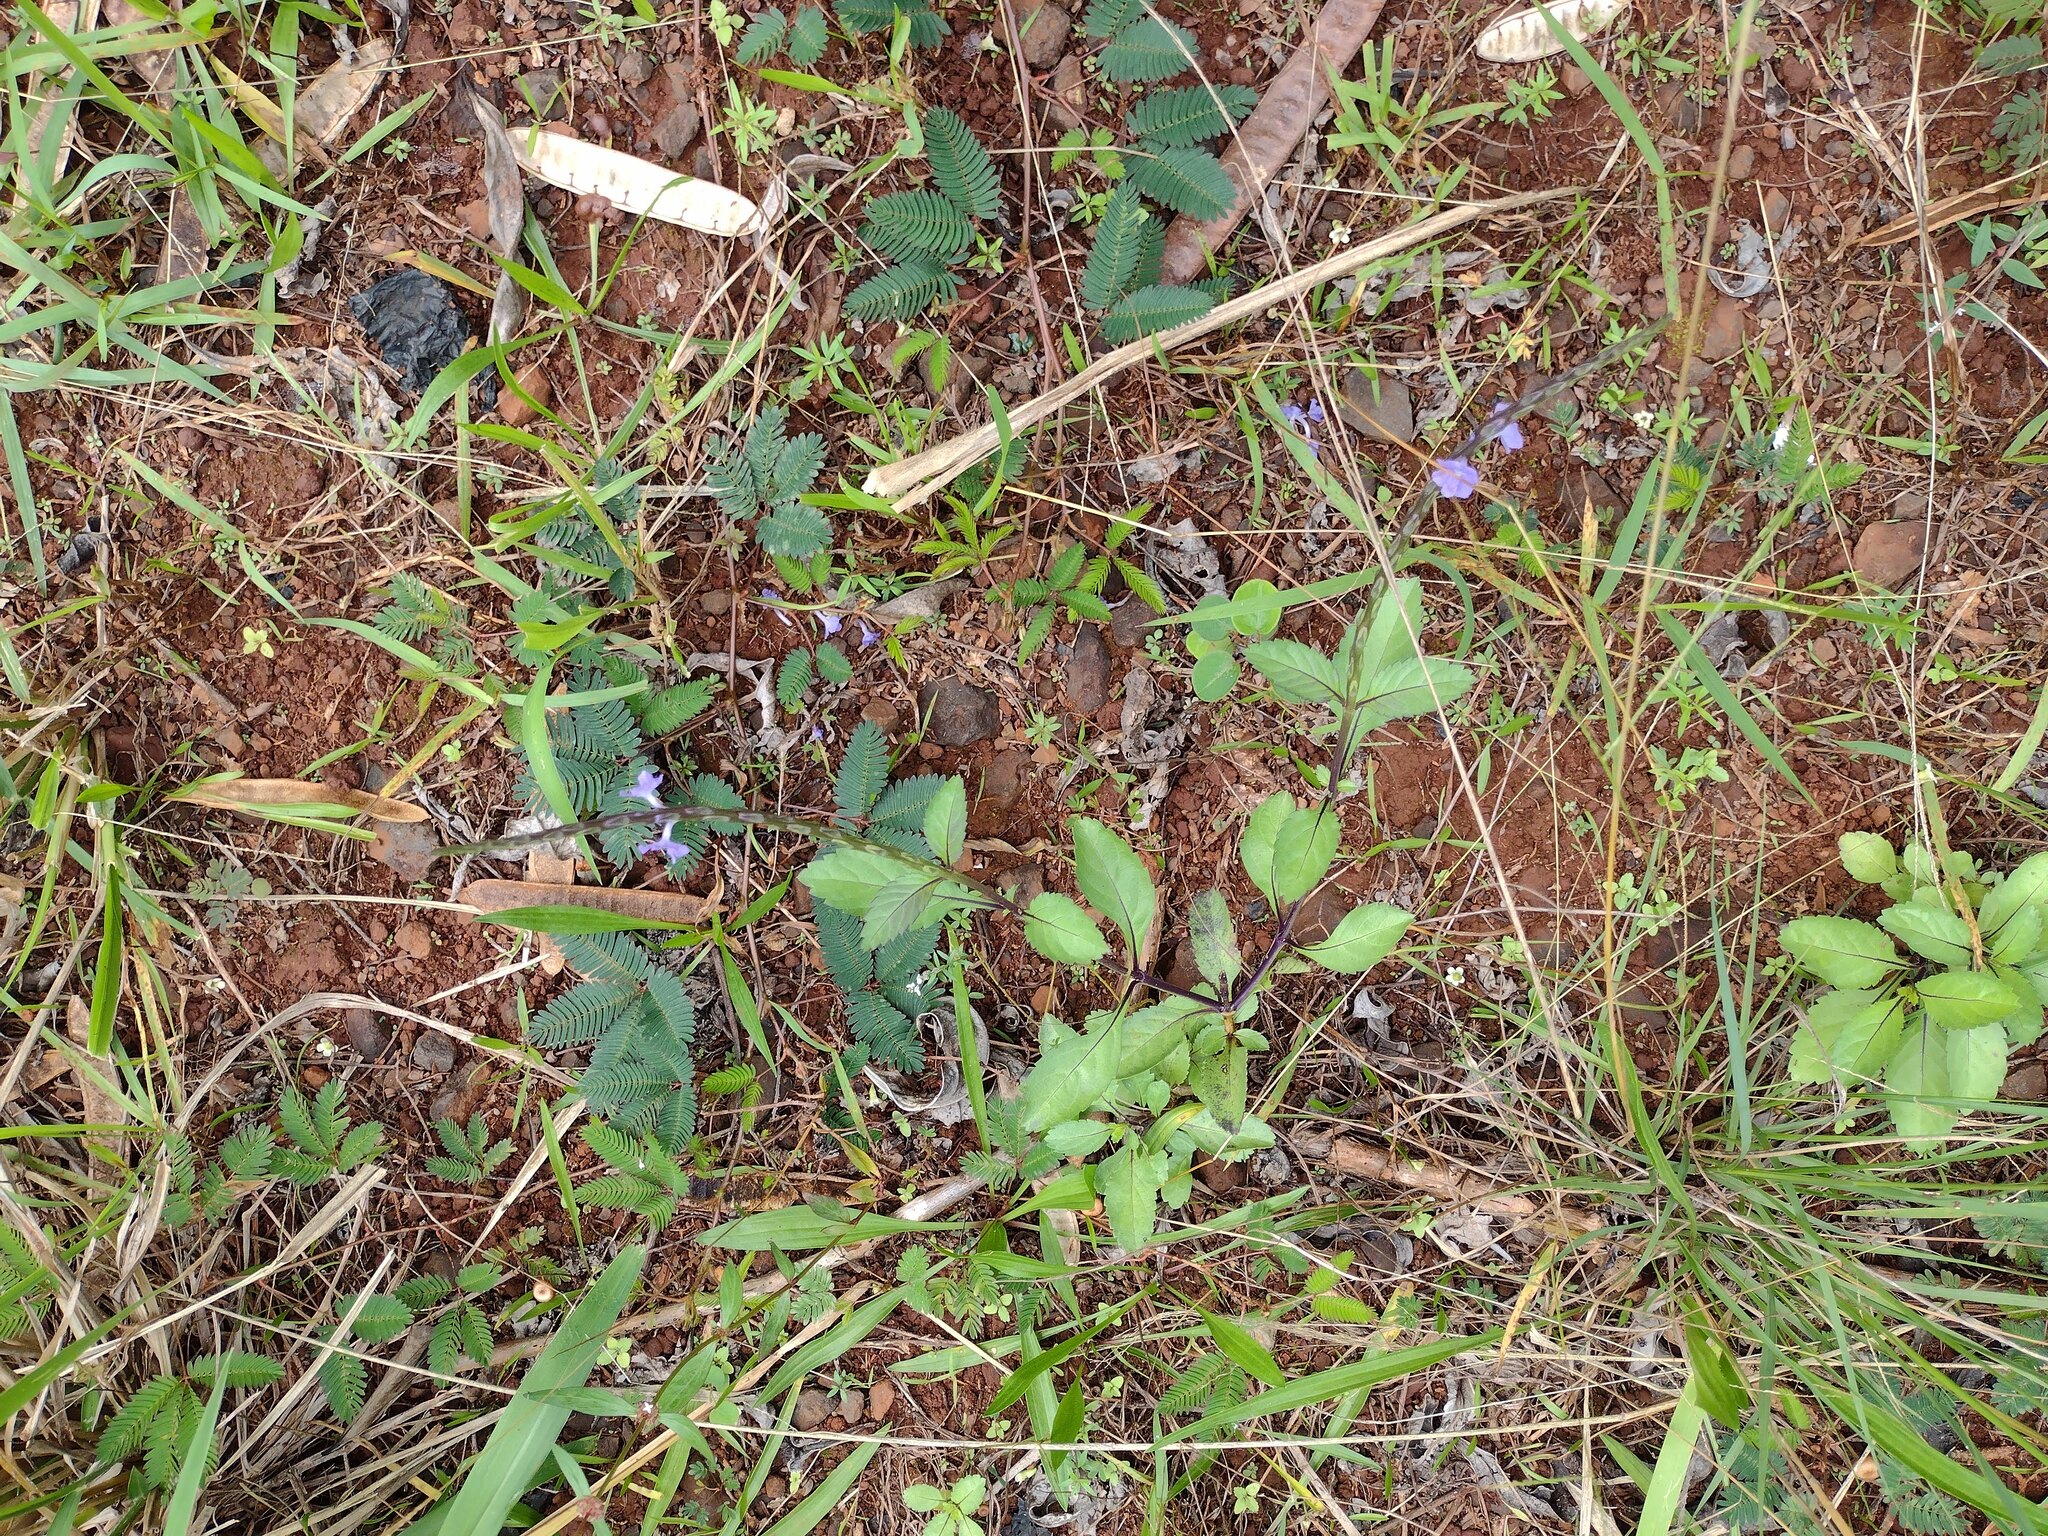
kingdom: Plantae
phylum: Tracheophyta
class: Magnoliopsida
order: Lamiales
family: Verbenaceae
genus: Stachytarpheta
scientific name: Stachytarpheta jamaicensis
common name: Light-blue snakeweed
